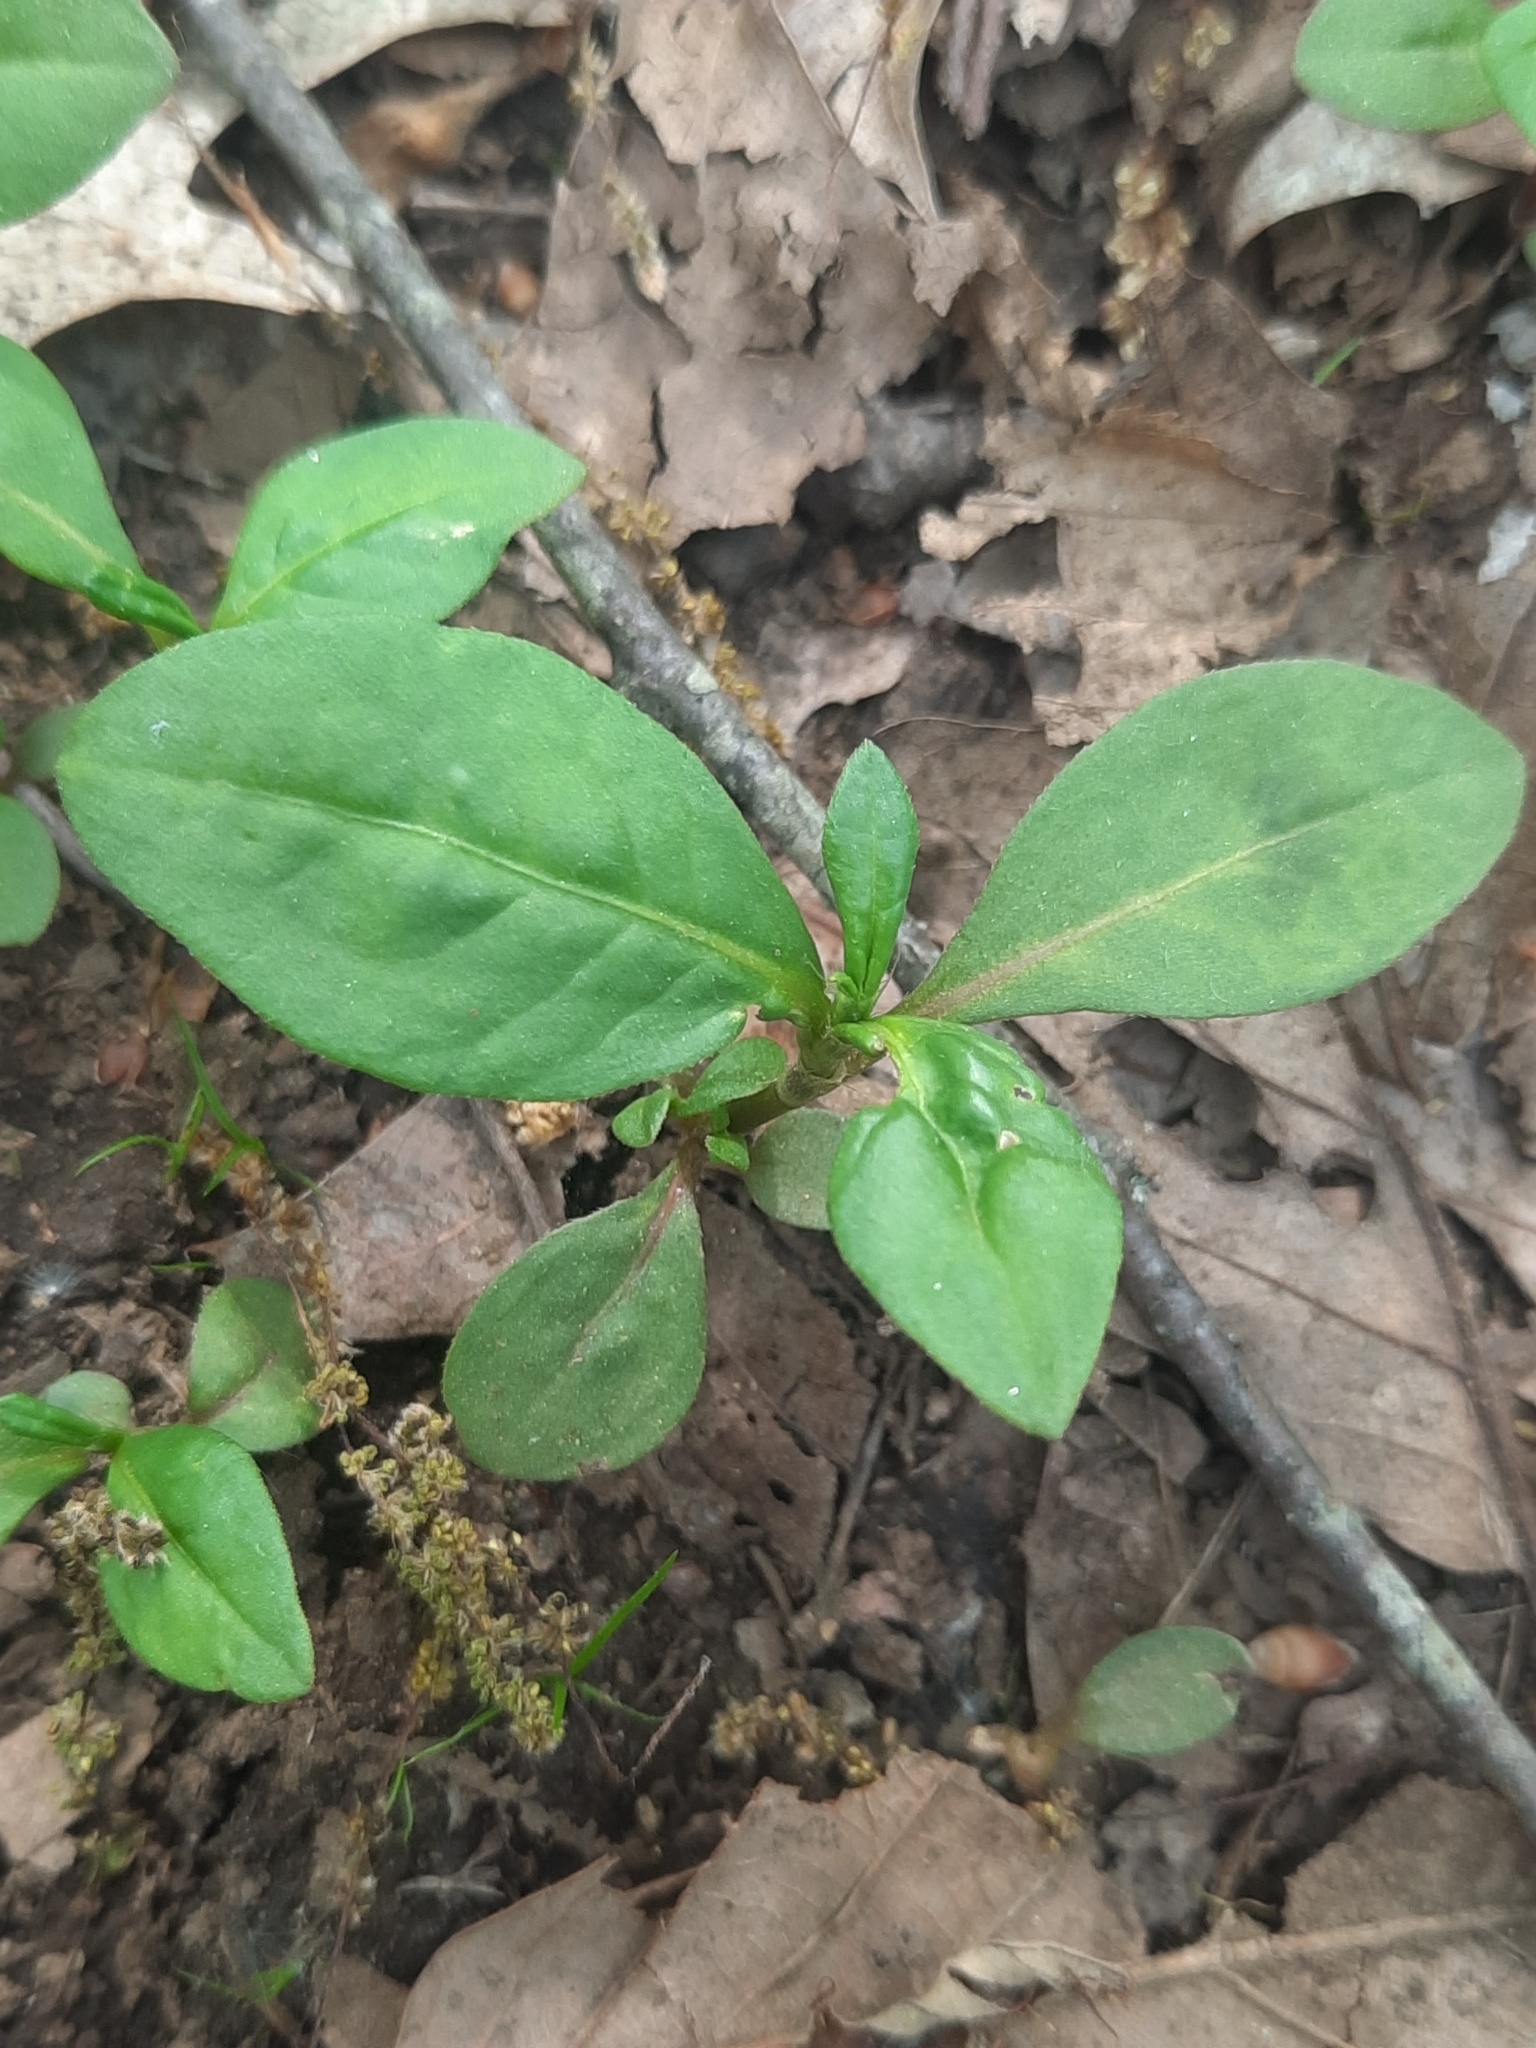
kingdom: Plantae
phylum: Tracheophyta
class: Magnoliopsida
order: Caryophyllales
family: Polygonaceae
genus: Persicaria
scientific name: Persicaria virginiana
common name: Jumpseed
